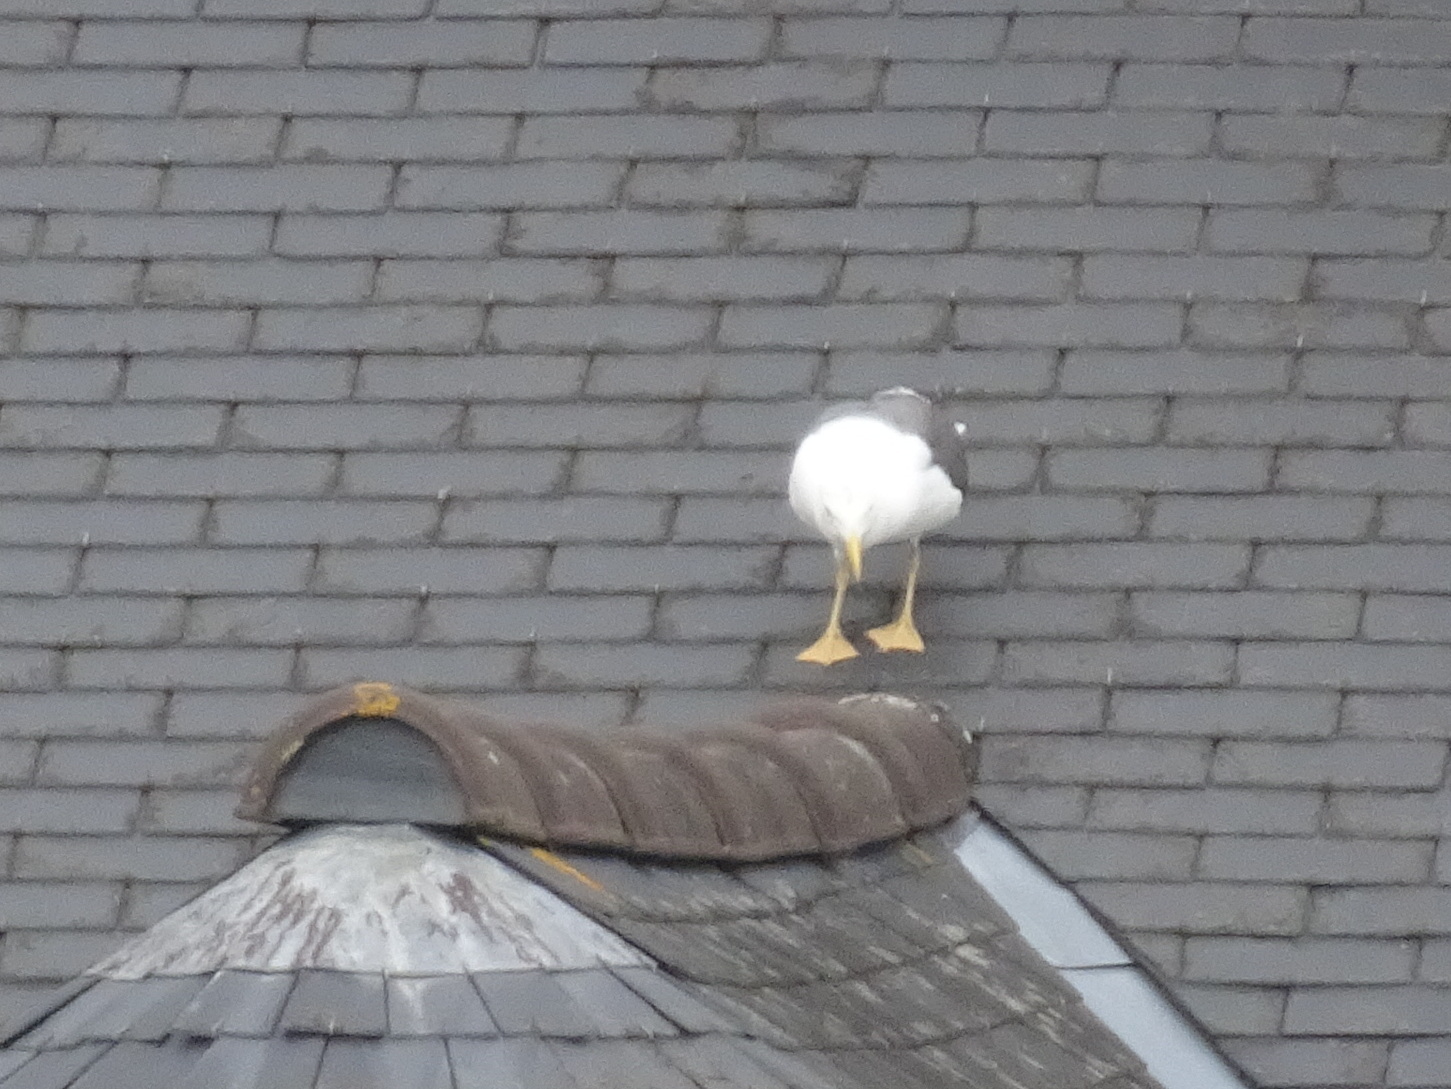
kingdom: Animalia
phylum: Chordata
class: Aves
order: Charadriiformes
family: Laridae
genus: Larus
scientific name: Larus fuscus
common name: Lesser black-backed gull
